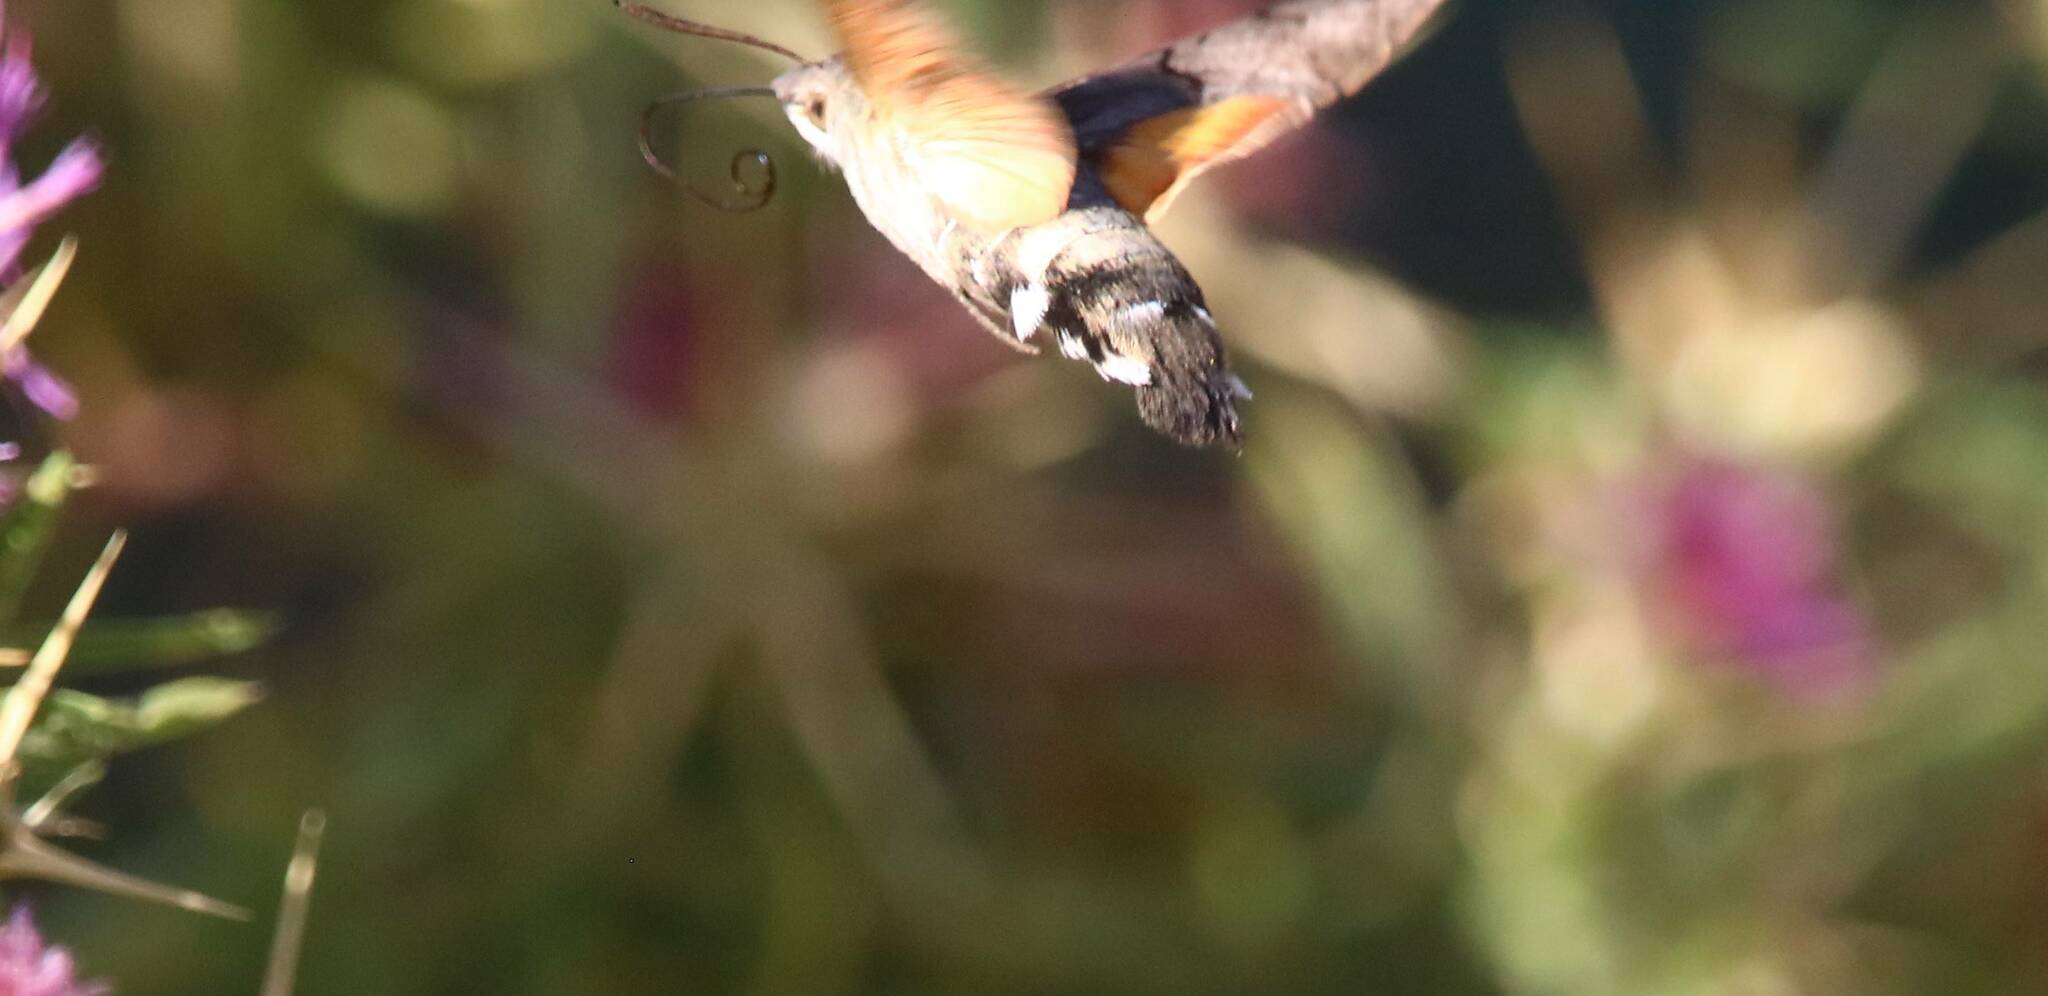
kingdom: Animalia
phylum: Arthropoda
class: Insecta
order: Lepidoptera
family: Sphingidae
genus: Macroglossum
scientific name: Macroglossum stellatarum
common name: Humming-bird hawk-moth
